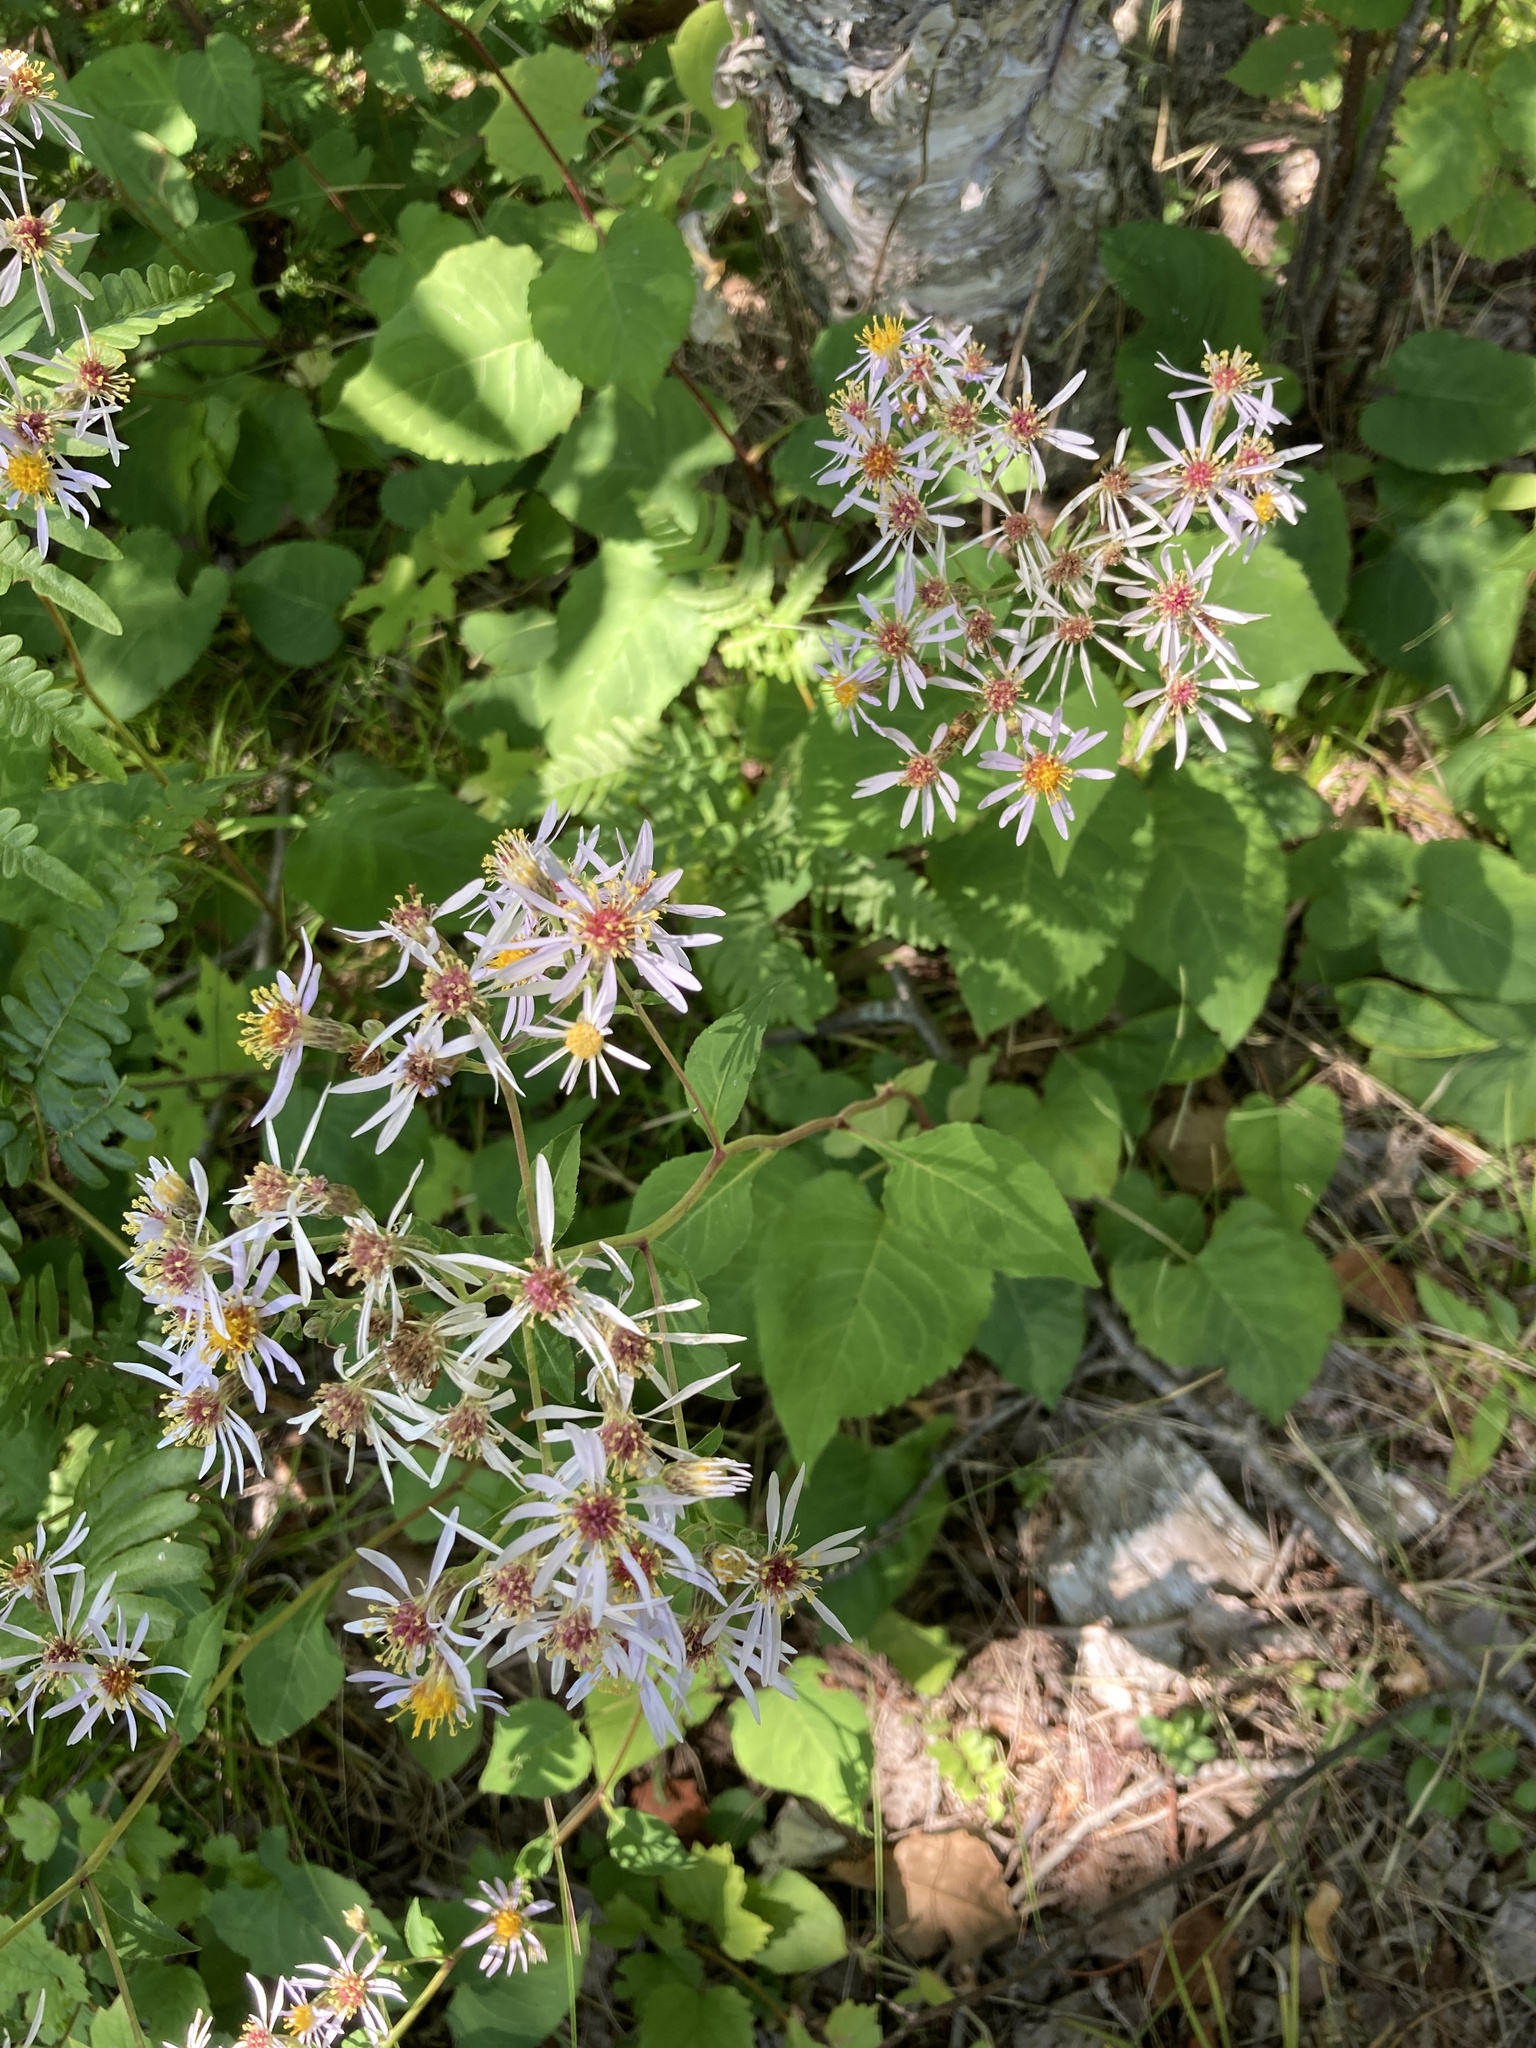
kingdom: Plantae
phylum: Tracheophyta
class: Magnoliopsida
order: Asterales
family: Asteraceae
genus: Eurybia
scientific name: Eurybia macrophylla
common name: Big-leaved aster
